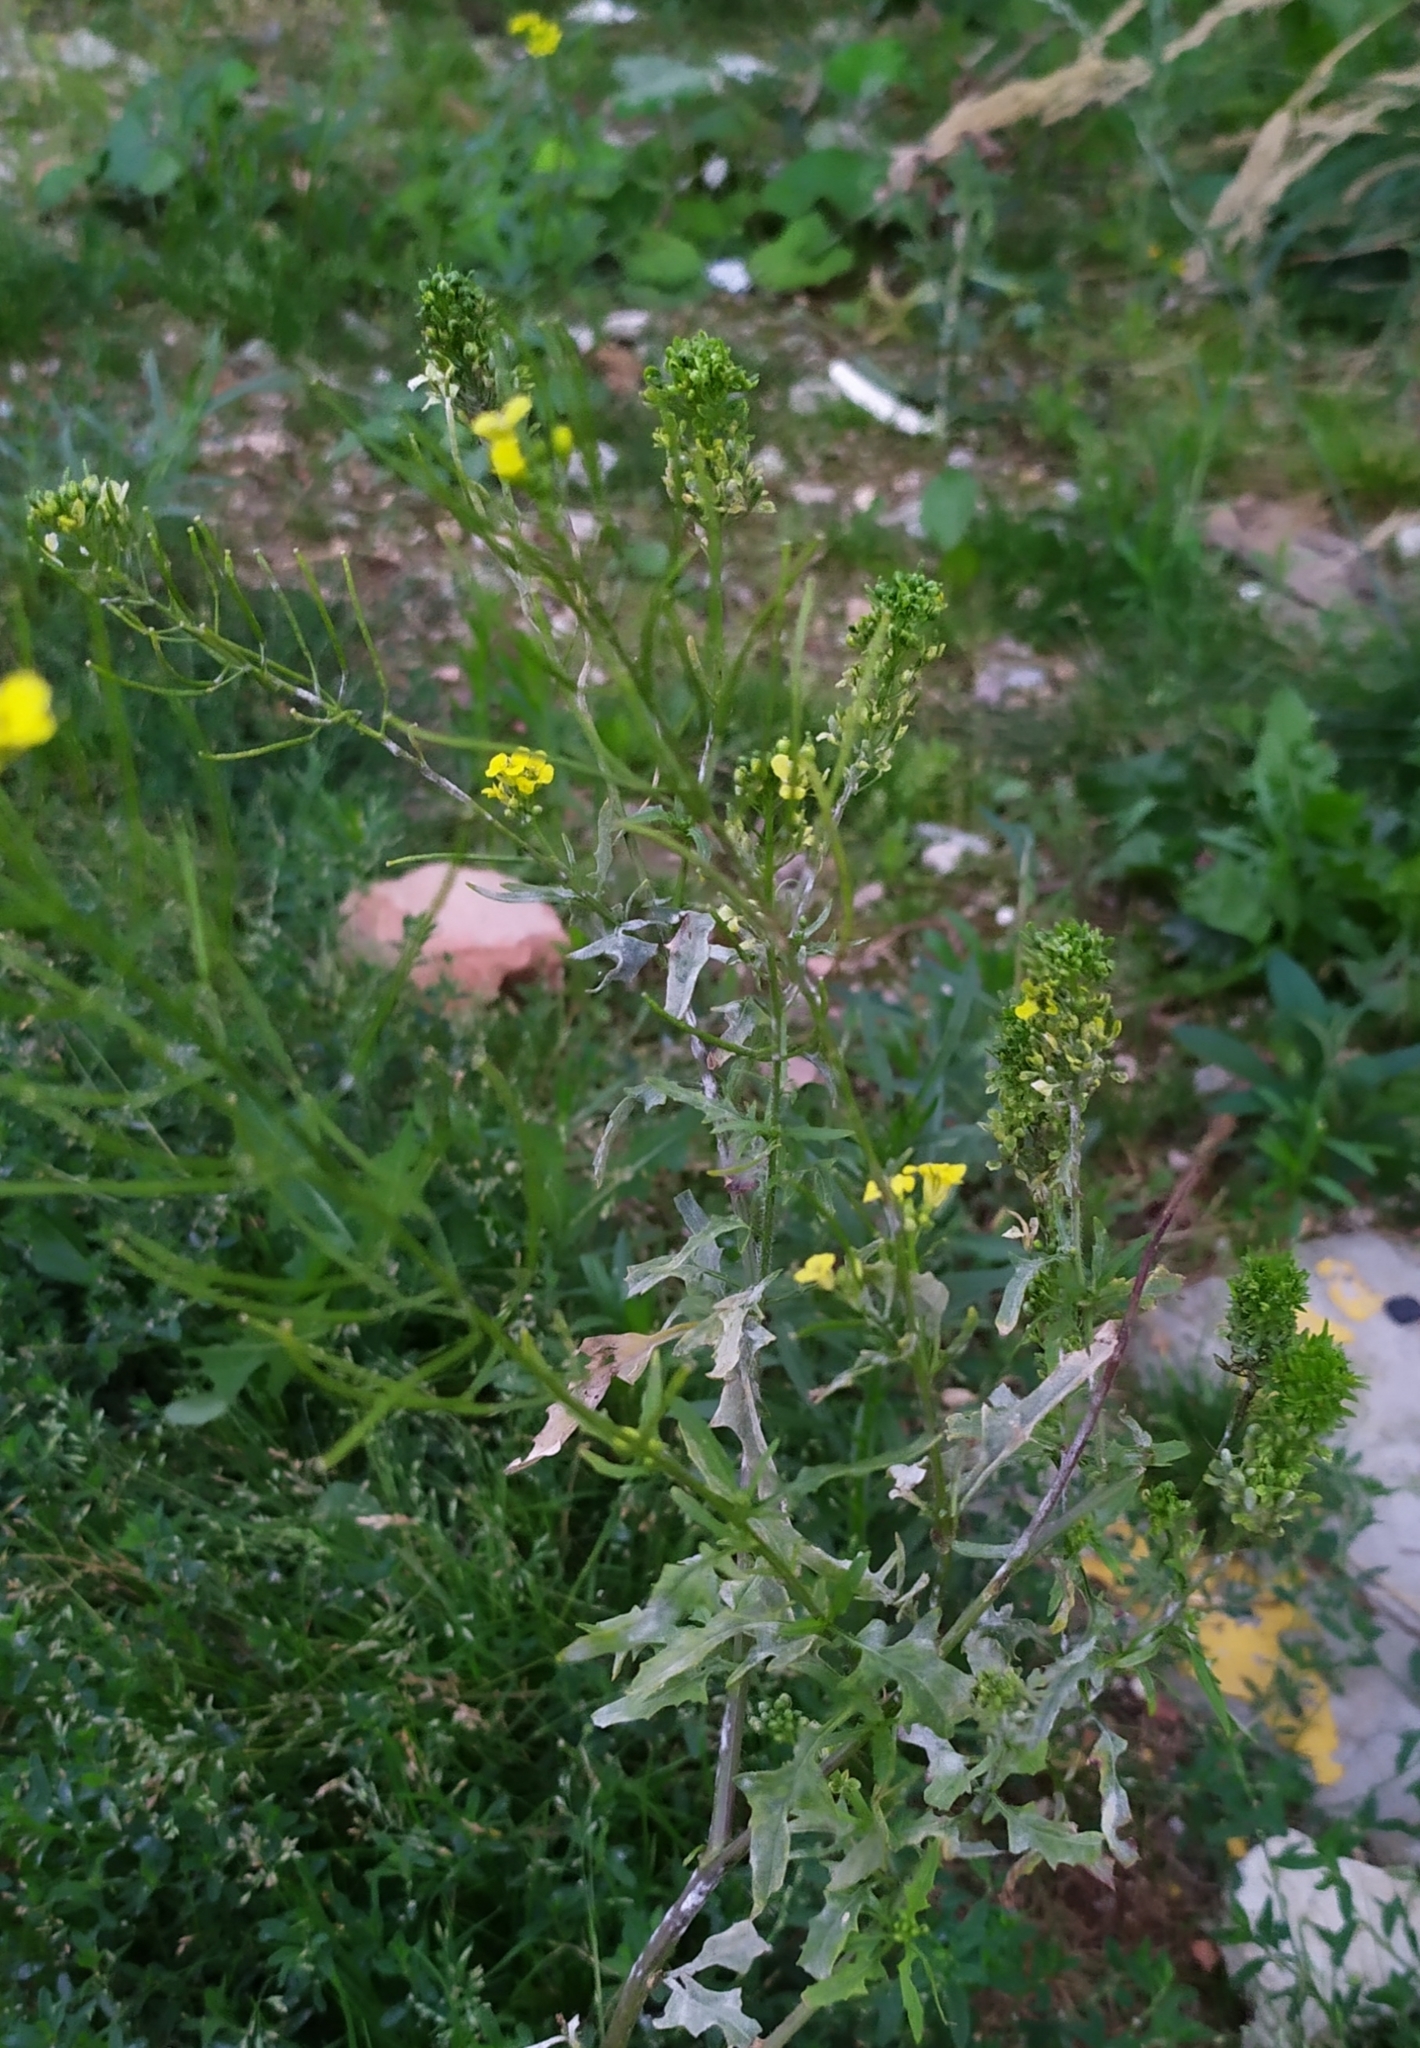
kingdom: Plantae
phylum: Tracheophyta
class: Magnoliopsida
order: Brassicales
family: Brassicaceae
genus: Sisymbrium
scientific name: Sisymbrium loeselii
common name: False london-rocket
